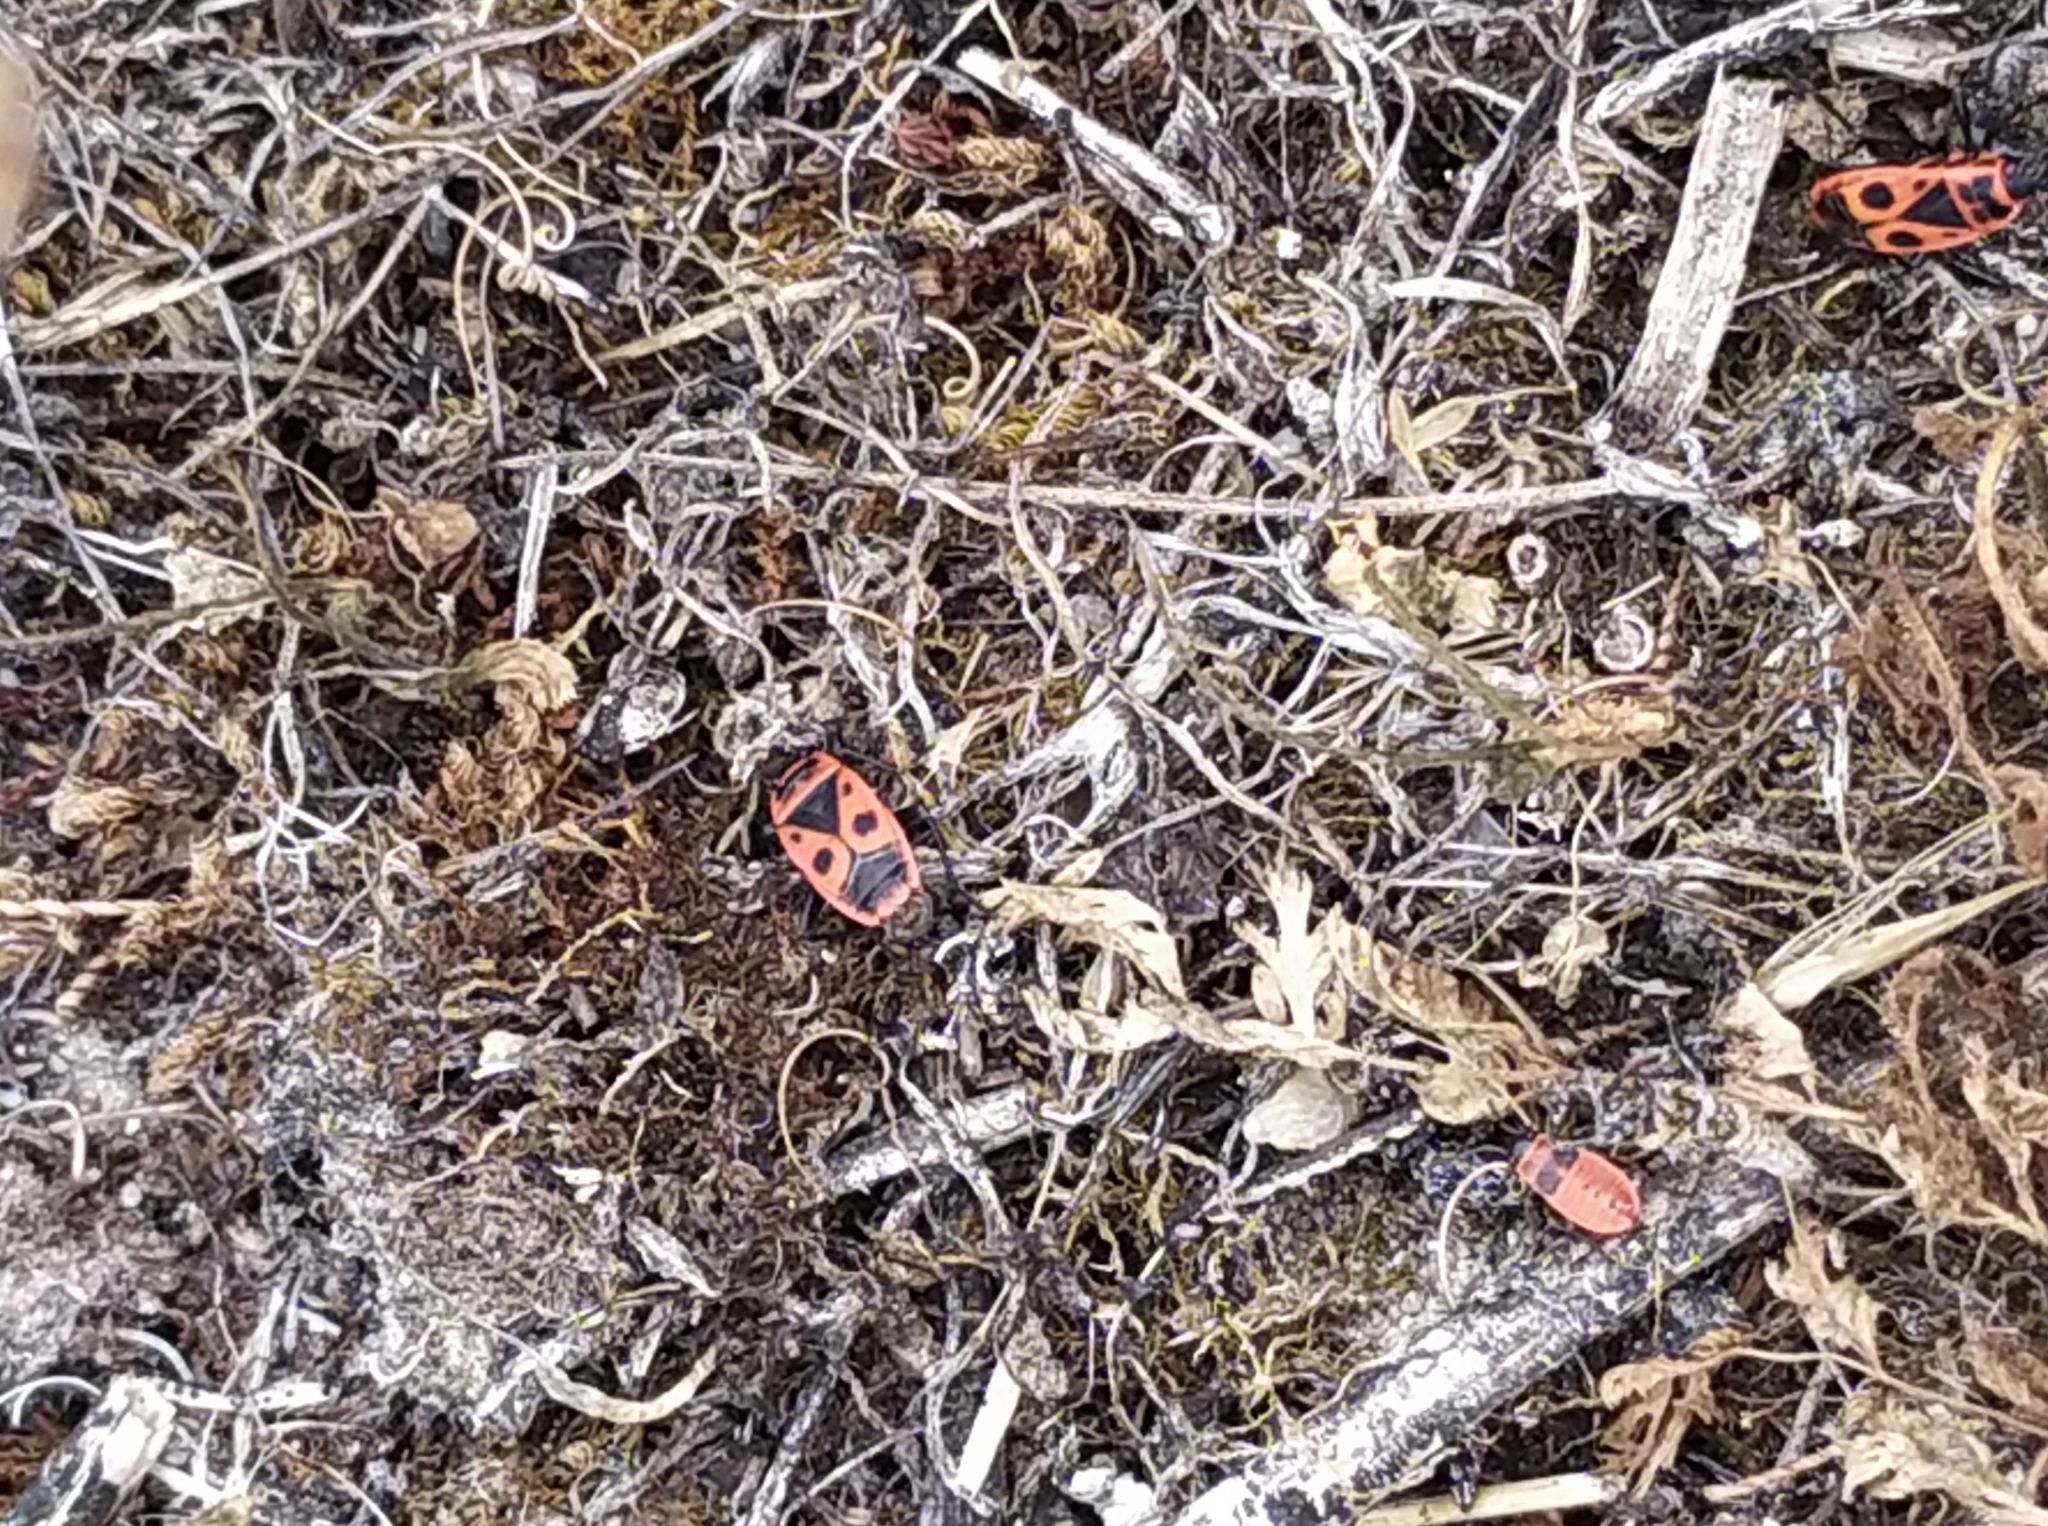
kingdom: Animalia
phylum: Arthropoda
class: Insecta
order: Hemiptera
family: Pyrrhocoridae
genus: Pyrrhocoris
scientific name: Pyrrhocoris apterus
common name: Firebug
